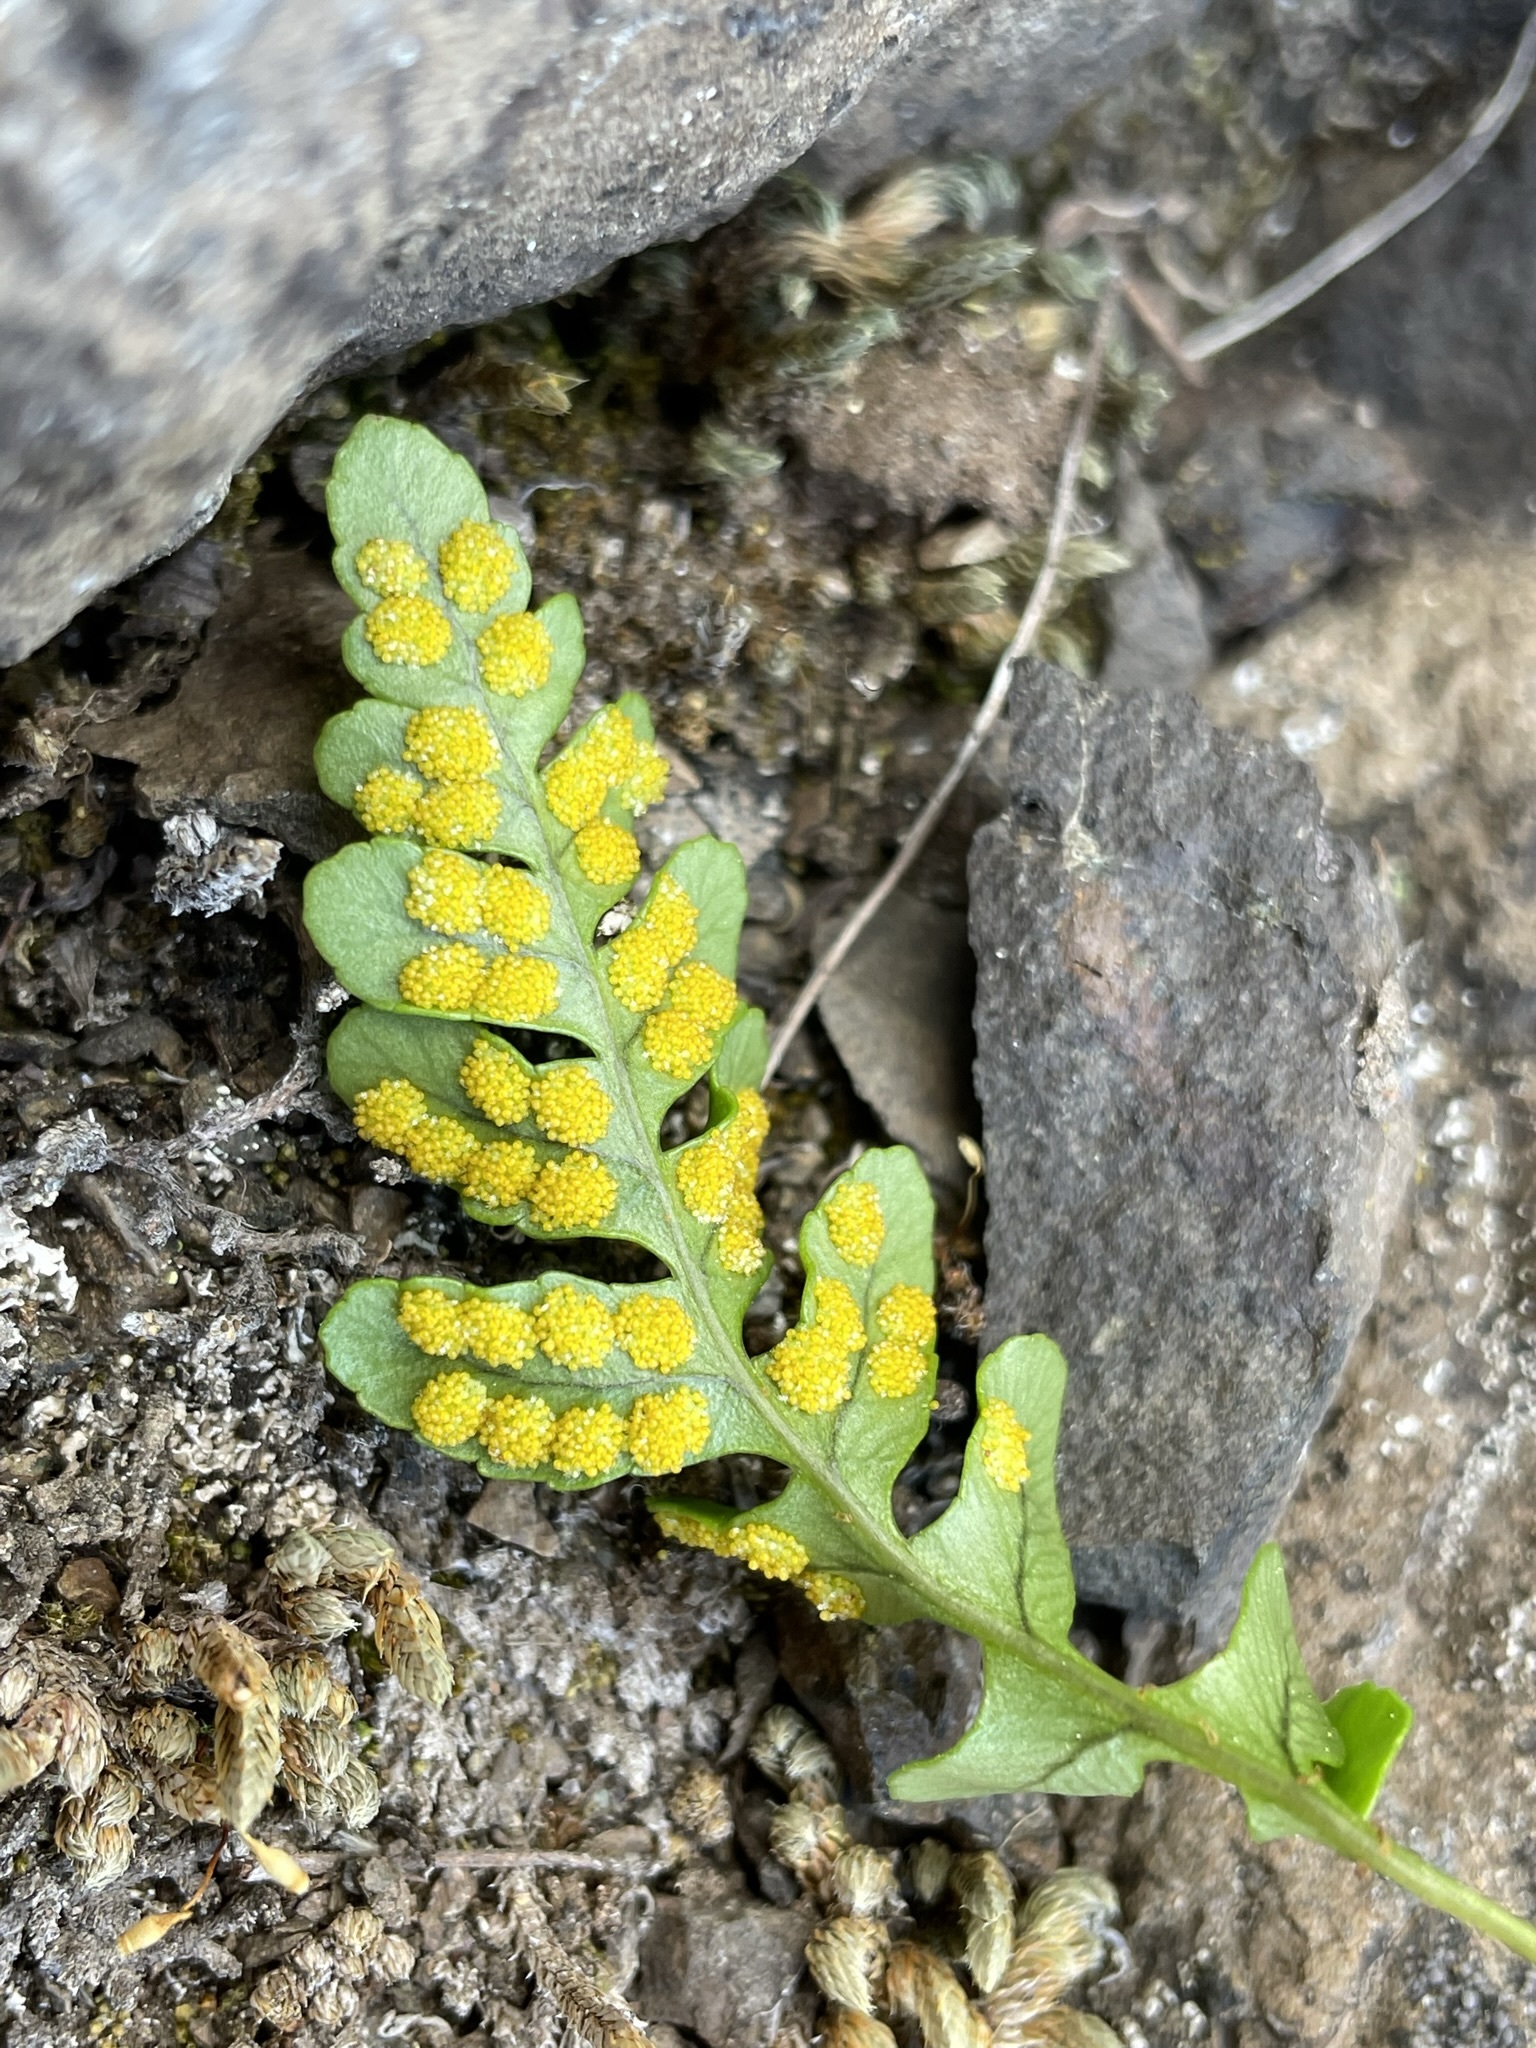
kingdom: Plantae
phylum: Tracheophyta
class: Polypodiopsida
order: Polypodiales
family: Polypodiaceae
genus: Polypodium
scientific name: Polypodium amorphum
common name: Pacific polypody
